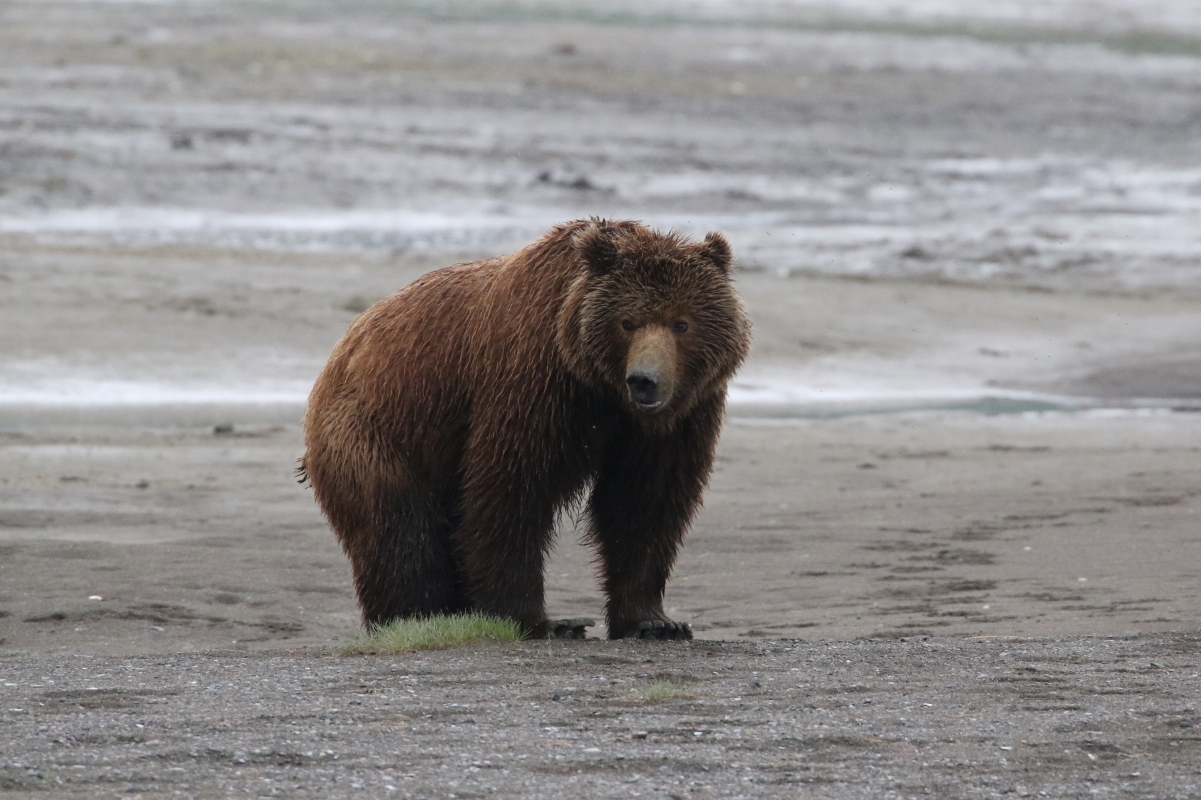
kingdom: Animalia
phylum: Chordata
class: Mammalia
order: Carnivora
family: Ursidae
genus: Ursus
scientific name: Ursus arctos
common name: Brown bear
